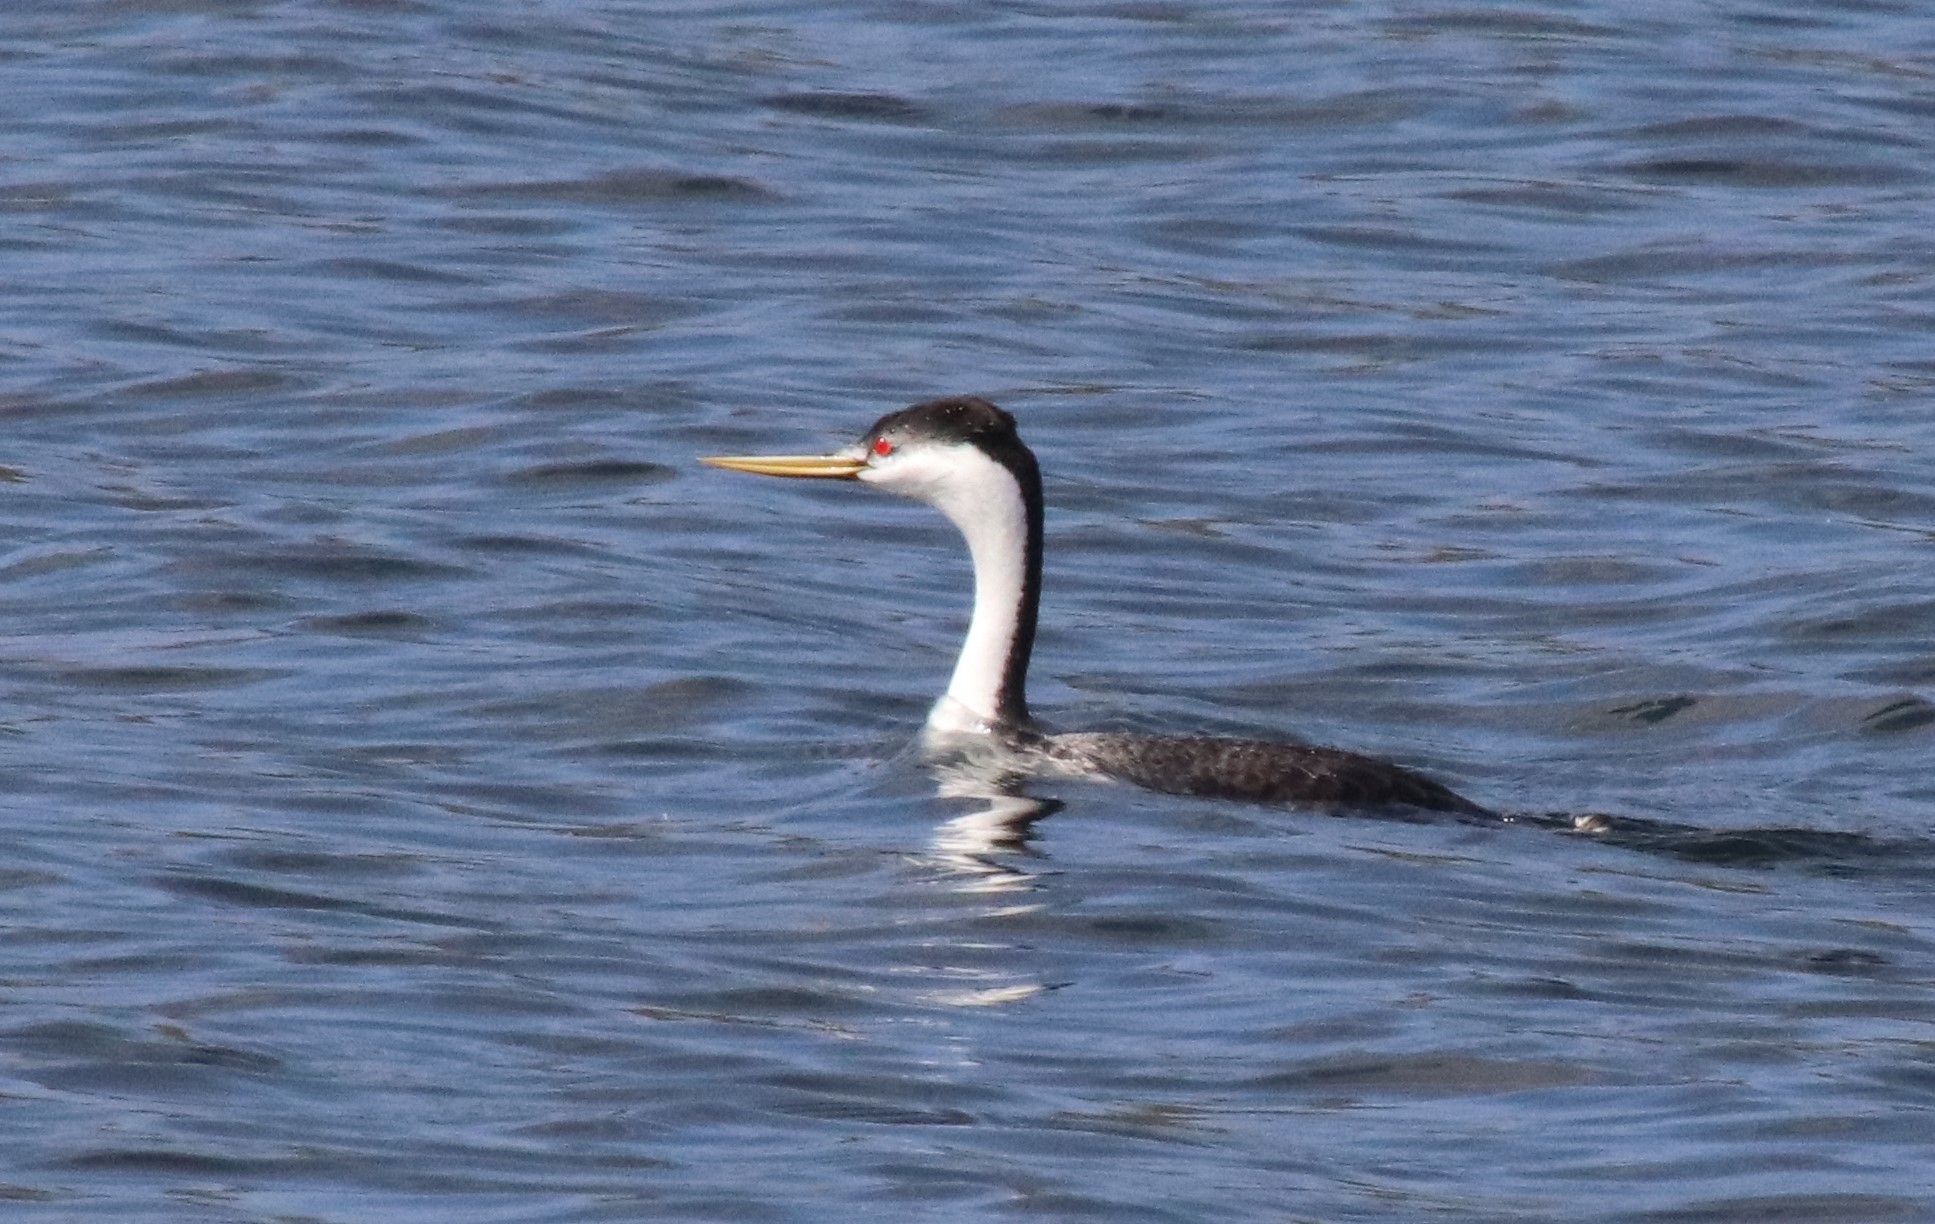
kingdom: Animalia
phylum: Chordata
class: Aves
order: Podicipediformes
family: Podicipedidae
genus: Aechmophorus
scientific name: Aechmophorus clarkii
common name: Clark's grebe
